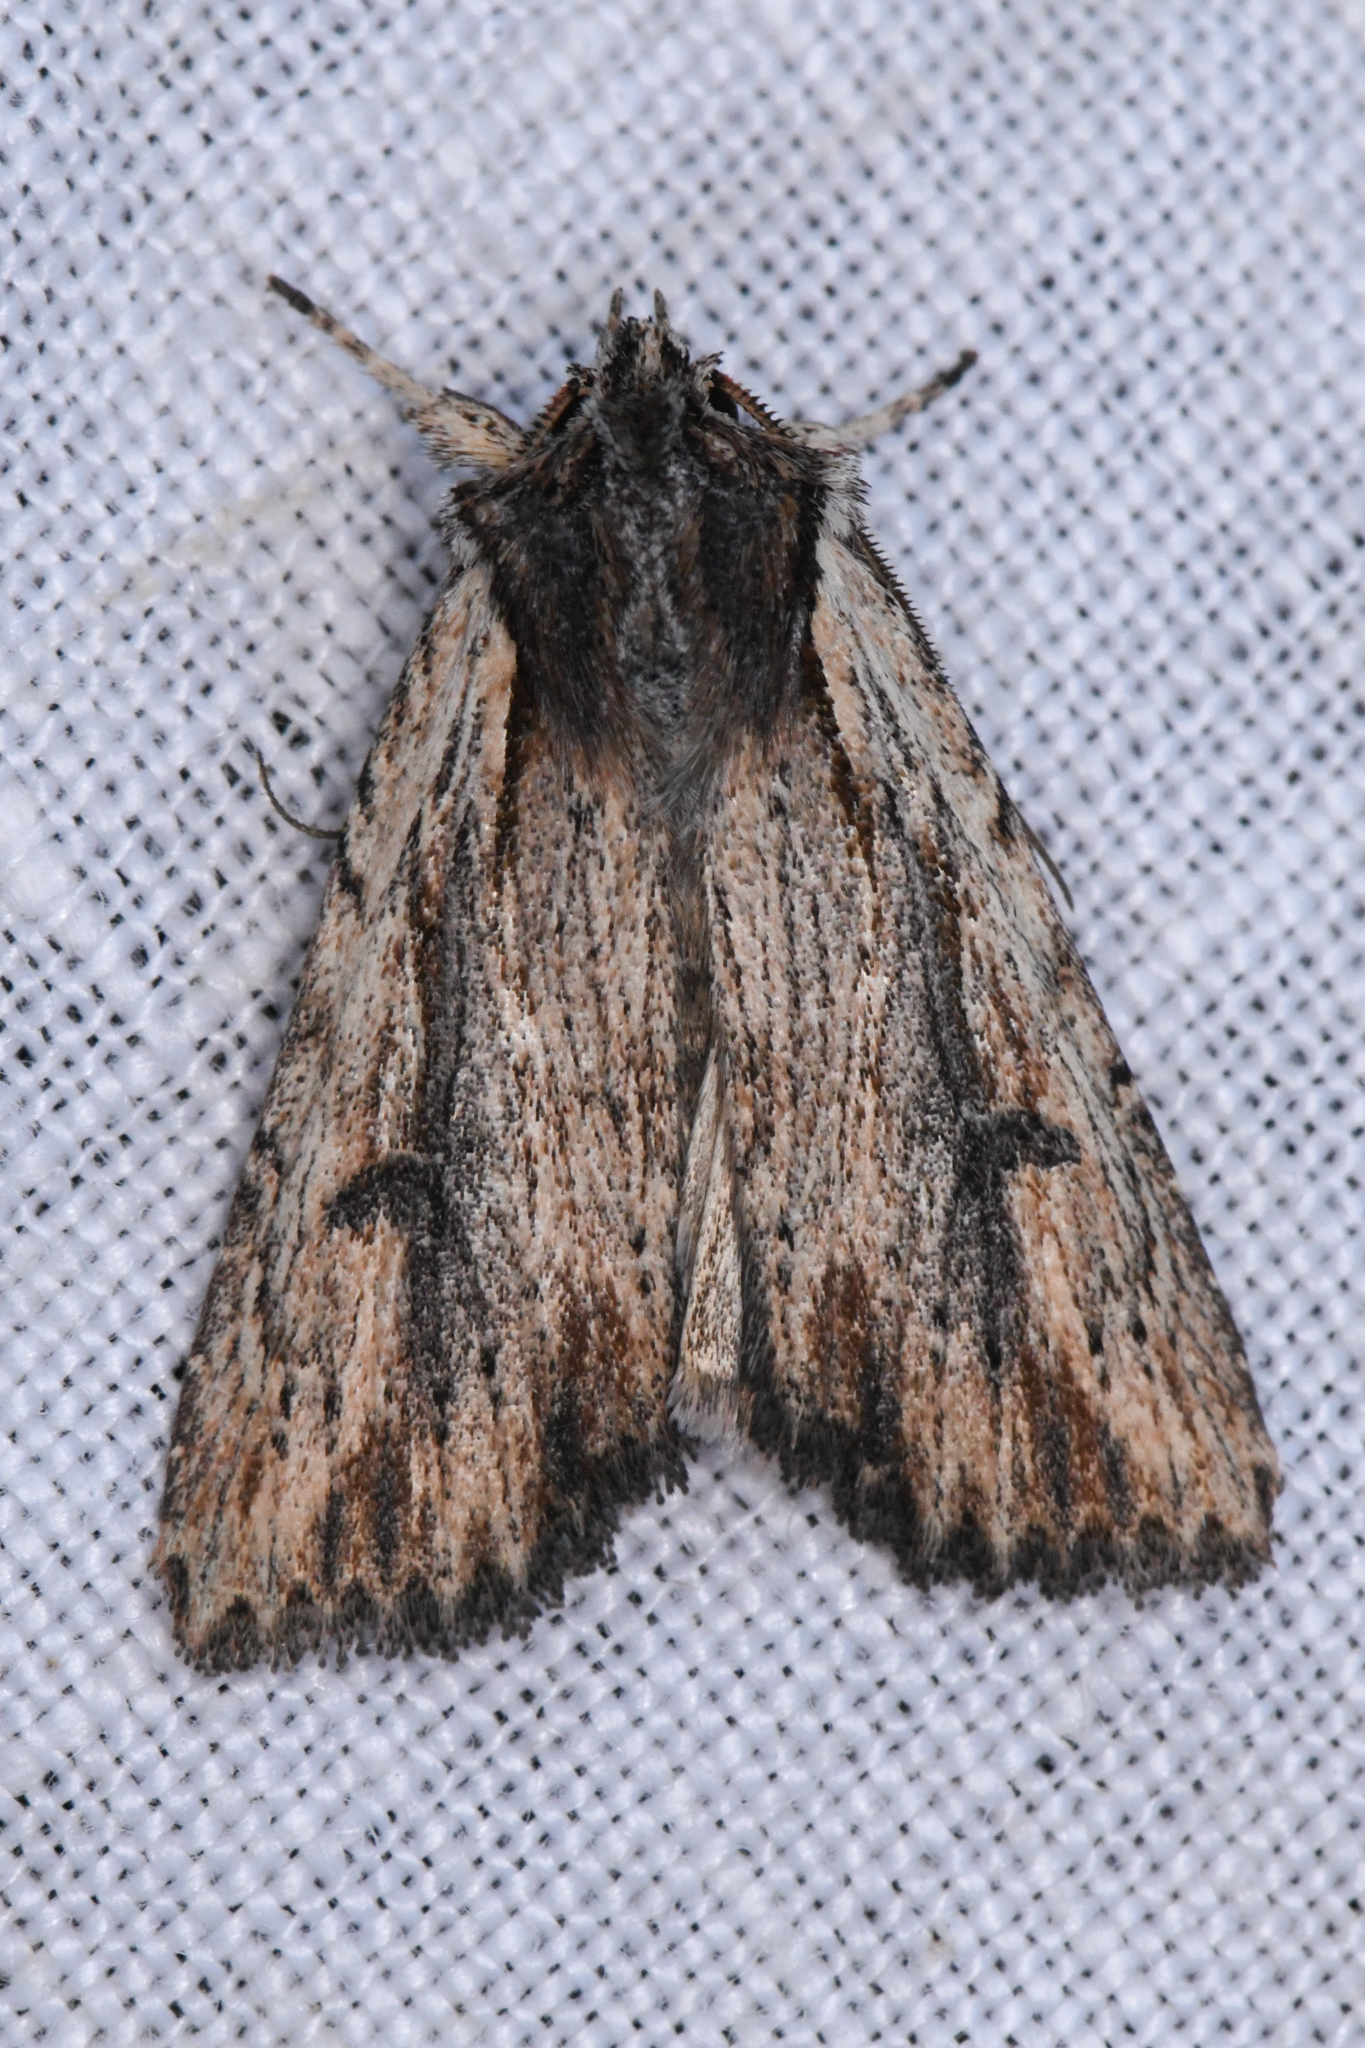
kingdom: Animalia
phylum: Arthropoda
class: Insecta
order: Lepidoptera
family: Noctuidae
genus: Xestia
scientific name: Xestia infimatis
